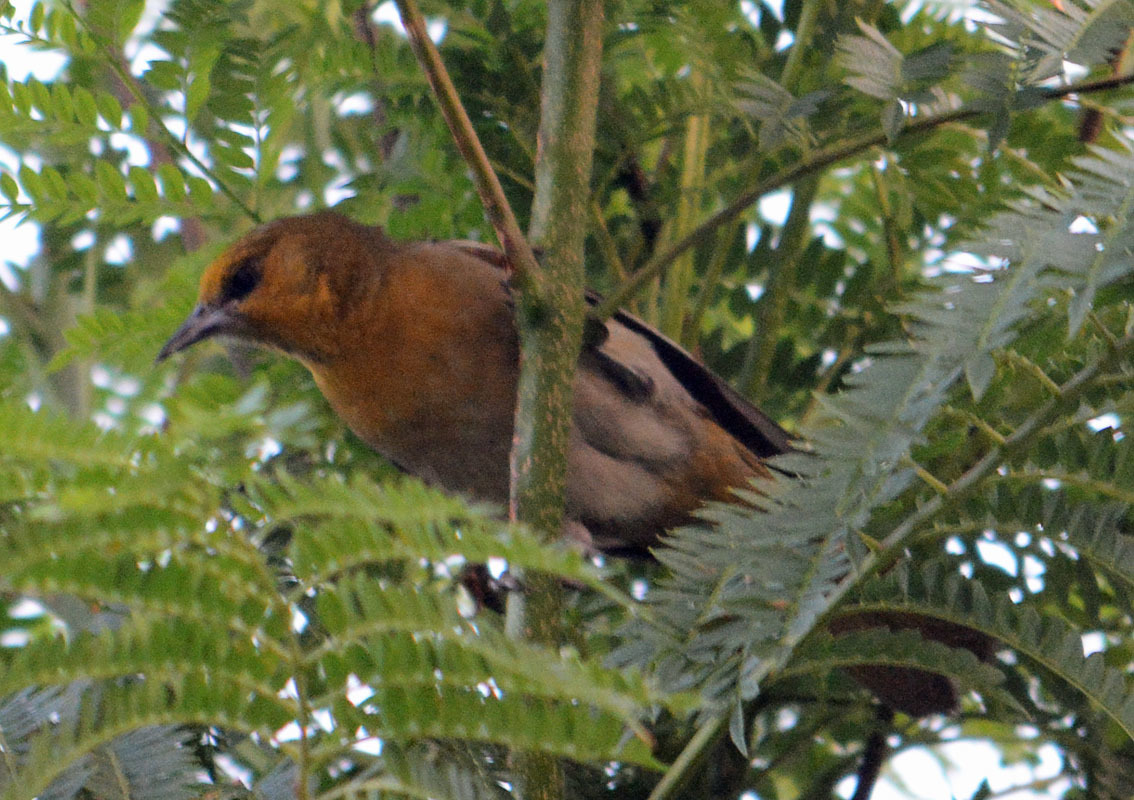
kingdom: Animalia
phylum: Chordata
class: Aves
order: Passeriformes
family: Icteridae
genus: Icterus
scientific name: Icterus bullockii
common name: Bullock's oriole
